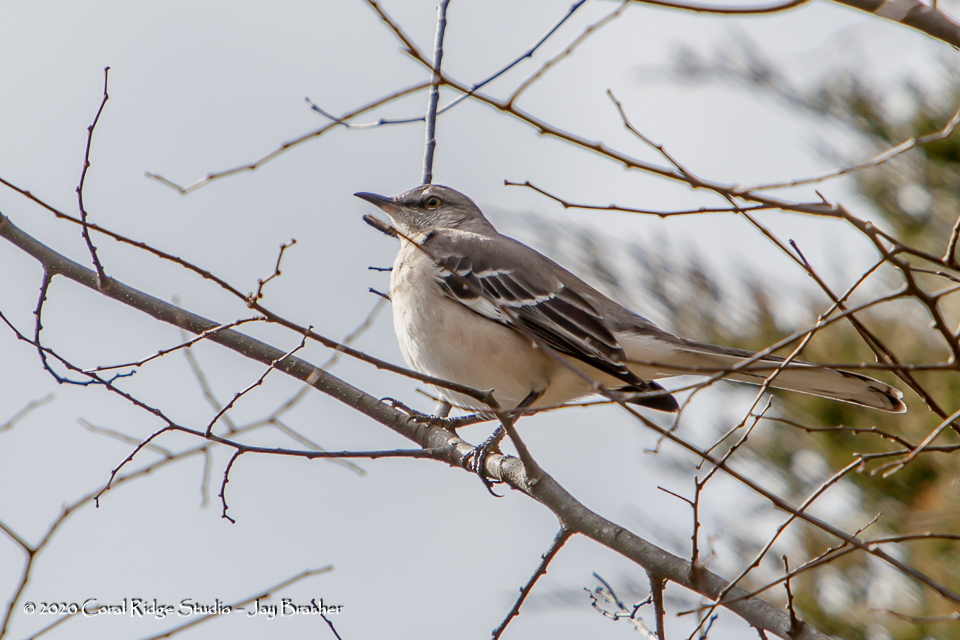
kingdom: Animalia
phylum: Chordata
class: Aves
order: Passeriformes
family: Mimidae
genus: Mimus
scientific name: Mimus polyglottos
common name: Northern mockingbird
